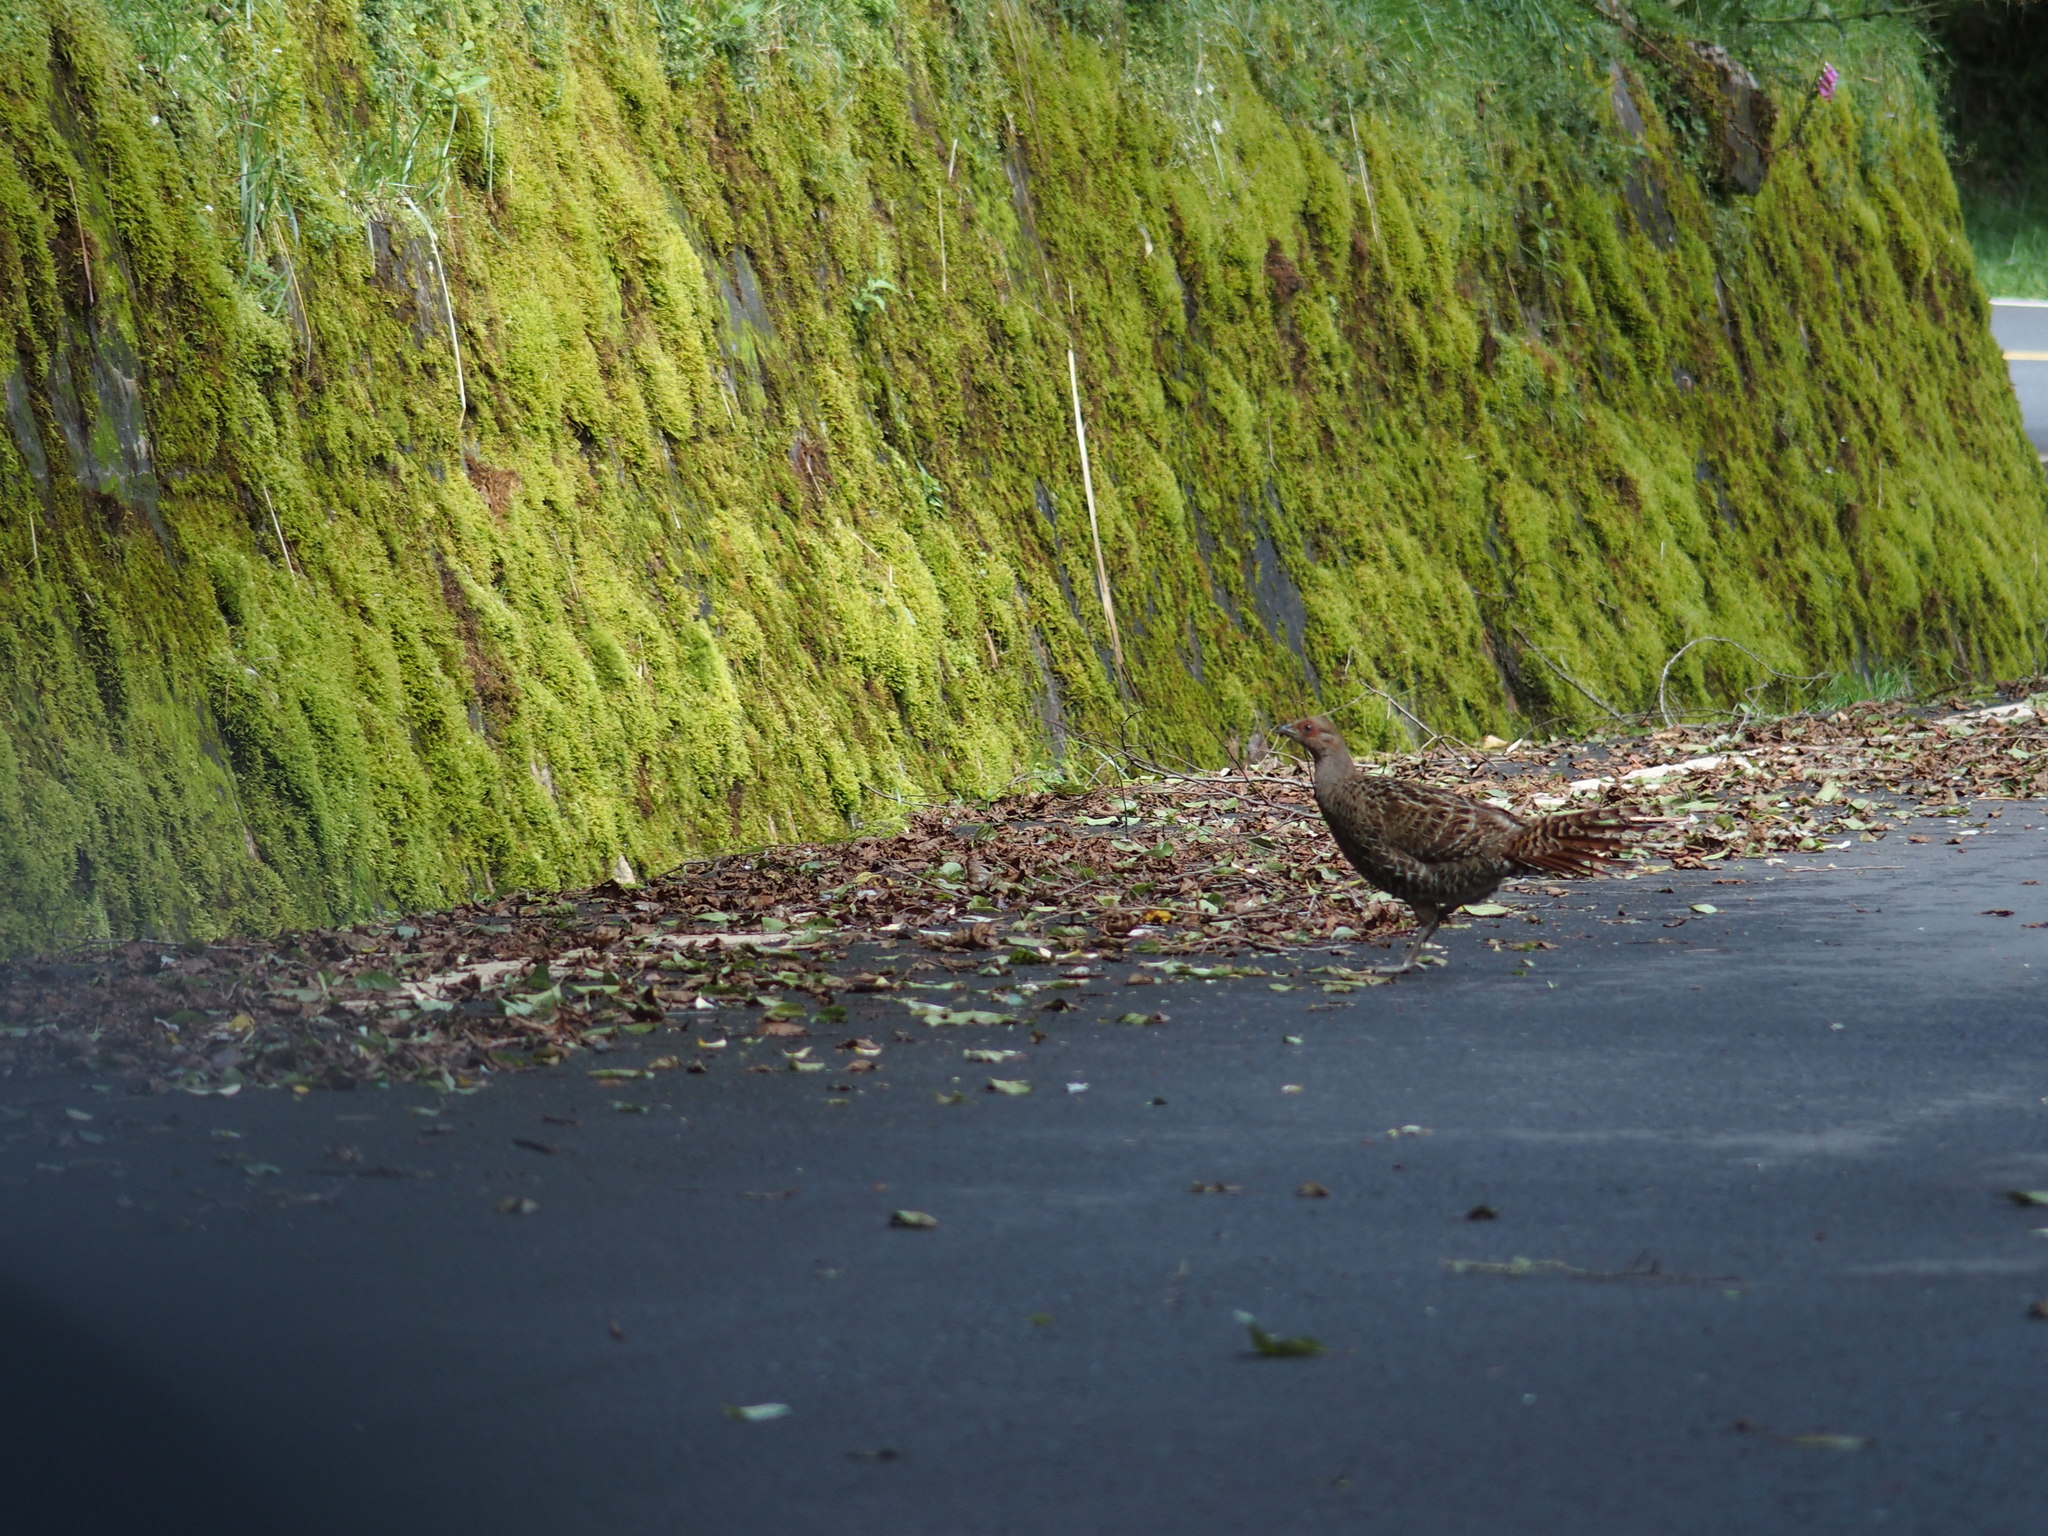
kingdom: Animalia
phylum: Chordata
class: Aves
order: Galliformes
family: Phasianidae
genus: Syrmaticus
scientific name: Syrmaticus mikado
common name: Mikado pheasant
